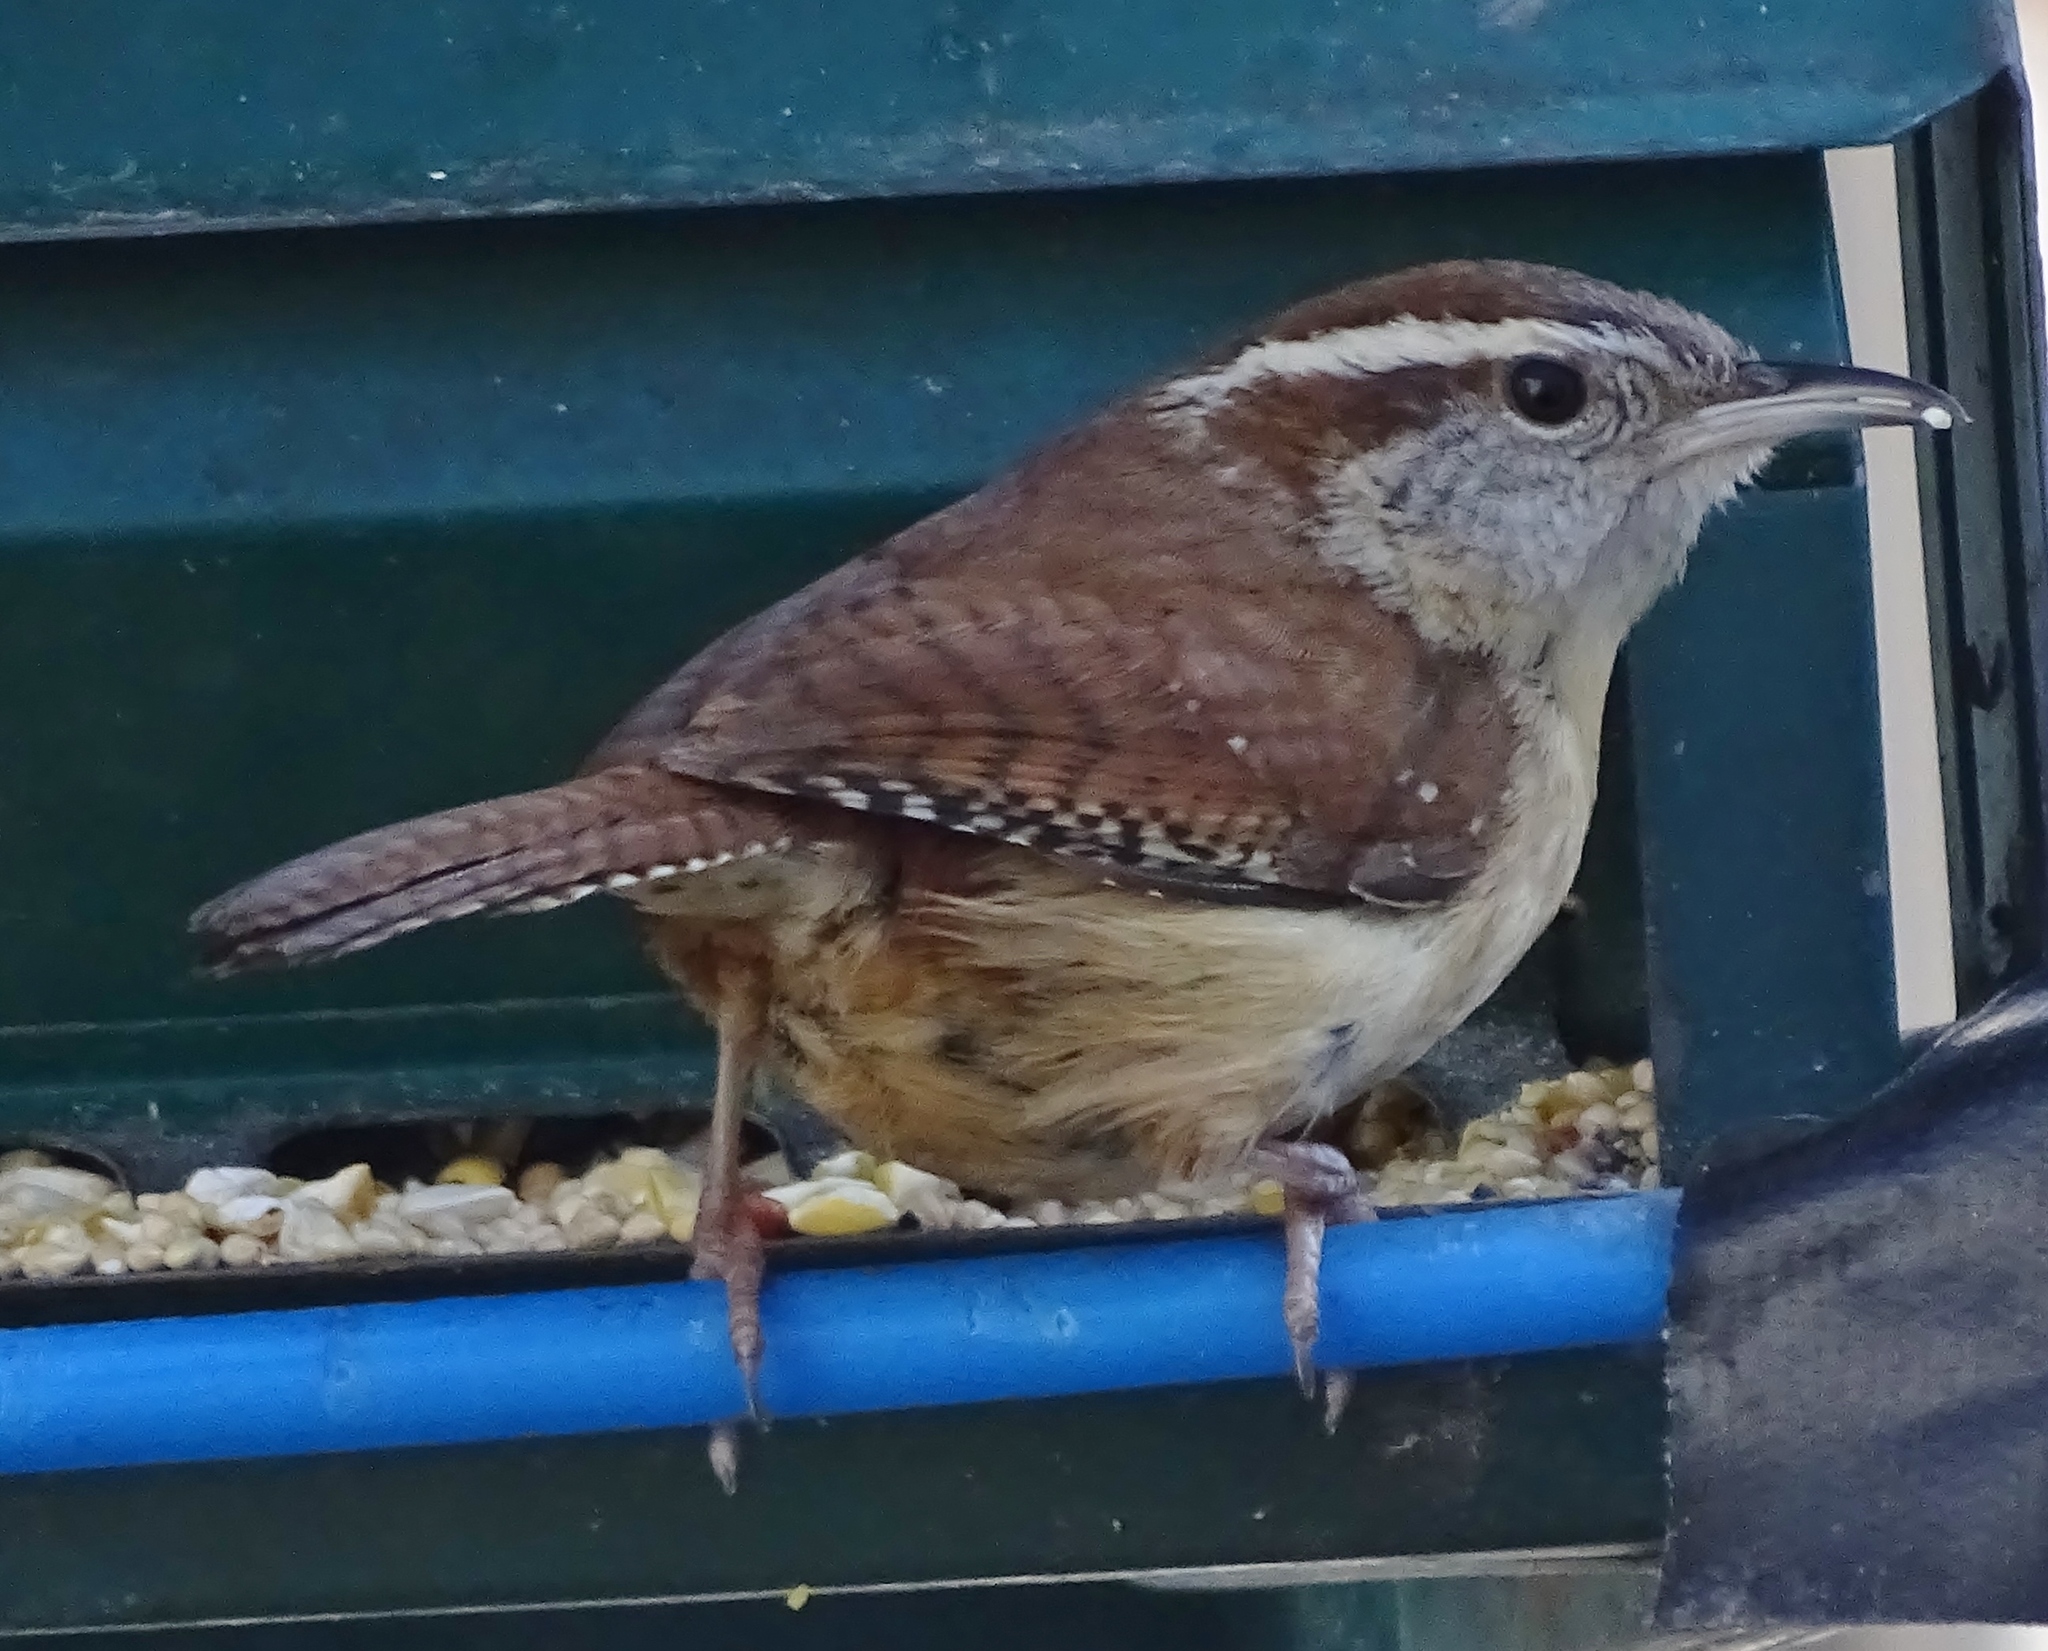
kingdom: Animalia
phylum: Chordata
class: Aves
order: Passeriformes
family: Troglodytidae
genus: Thryothorus
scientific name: Thryothorus ludovicianus
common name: Carolina wren
